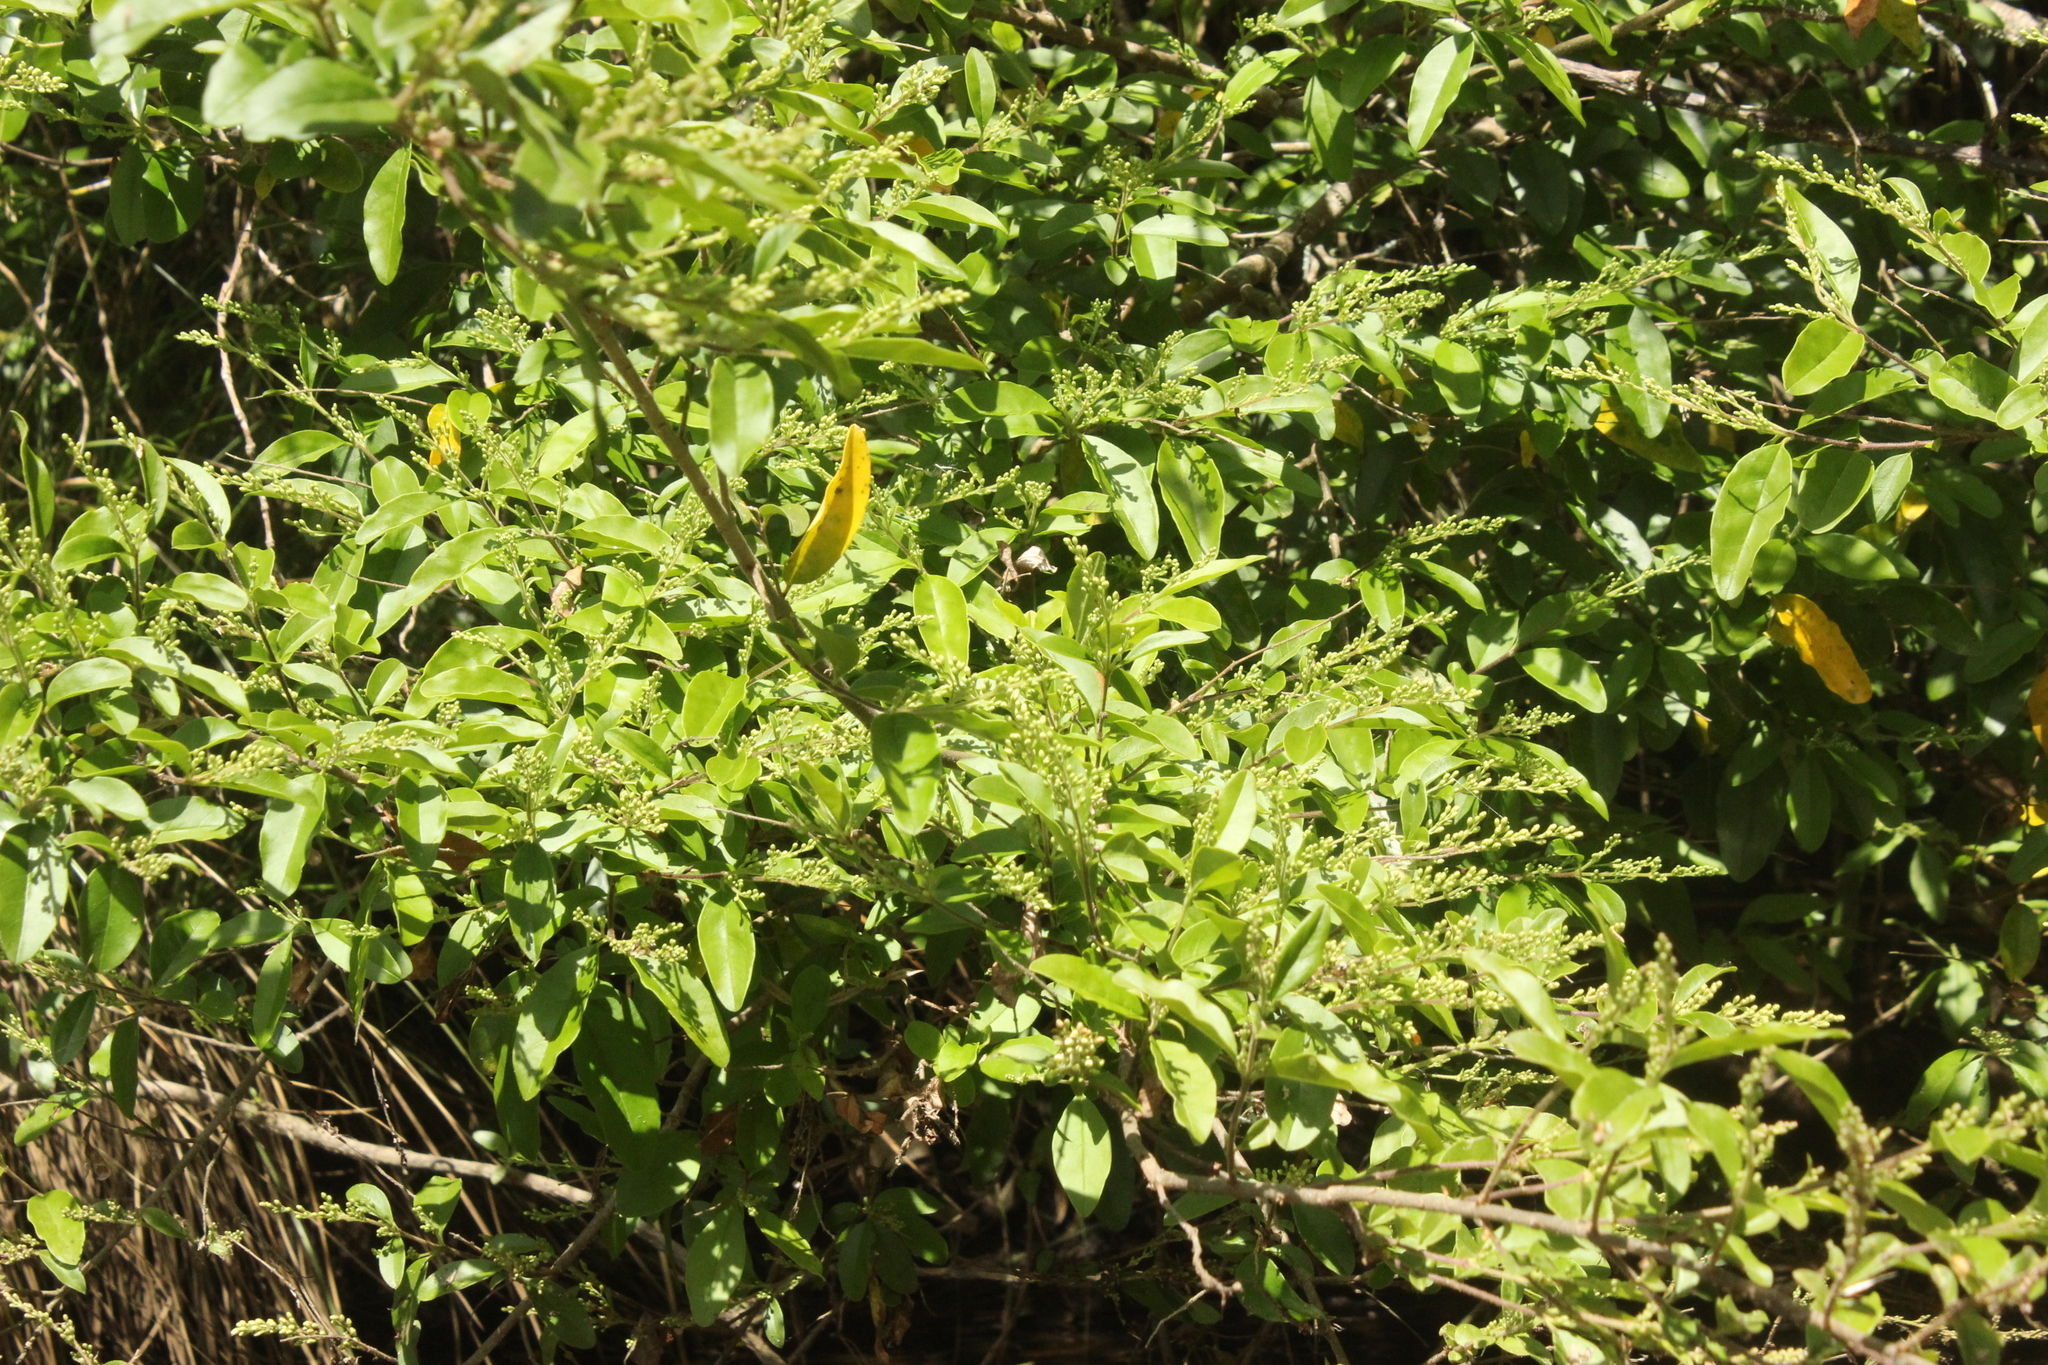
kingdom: Plantae
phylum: Tracheophyta
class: Magnoliopsida
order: Lamiales
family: Oleaceae
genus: Ligustrum
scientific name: Ligustrum sinense
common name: Chinese privet
